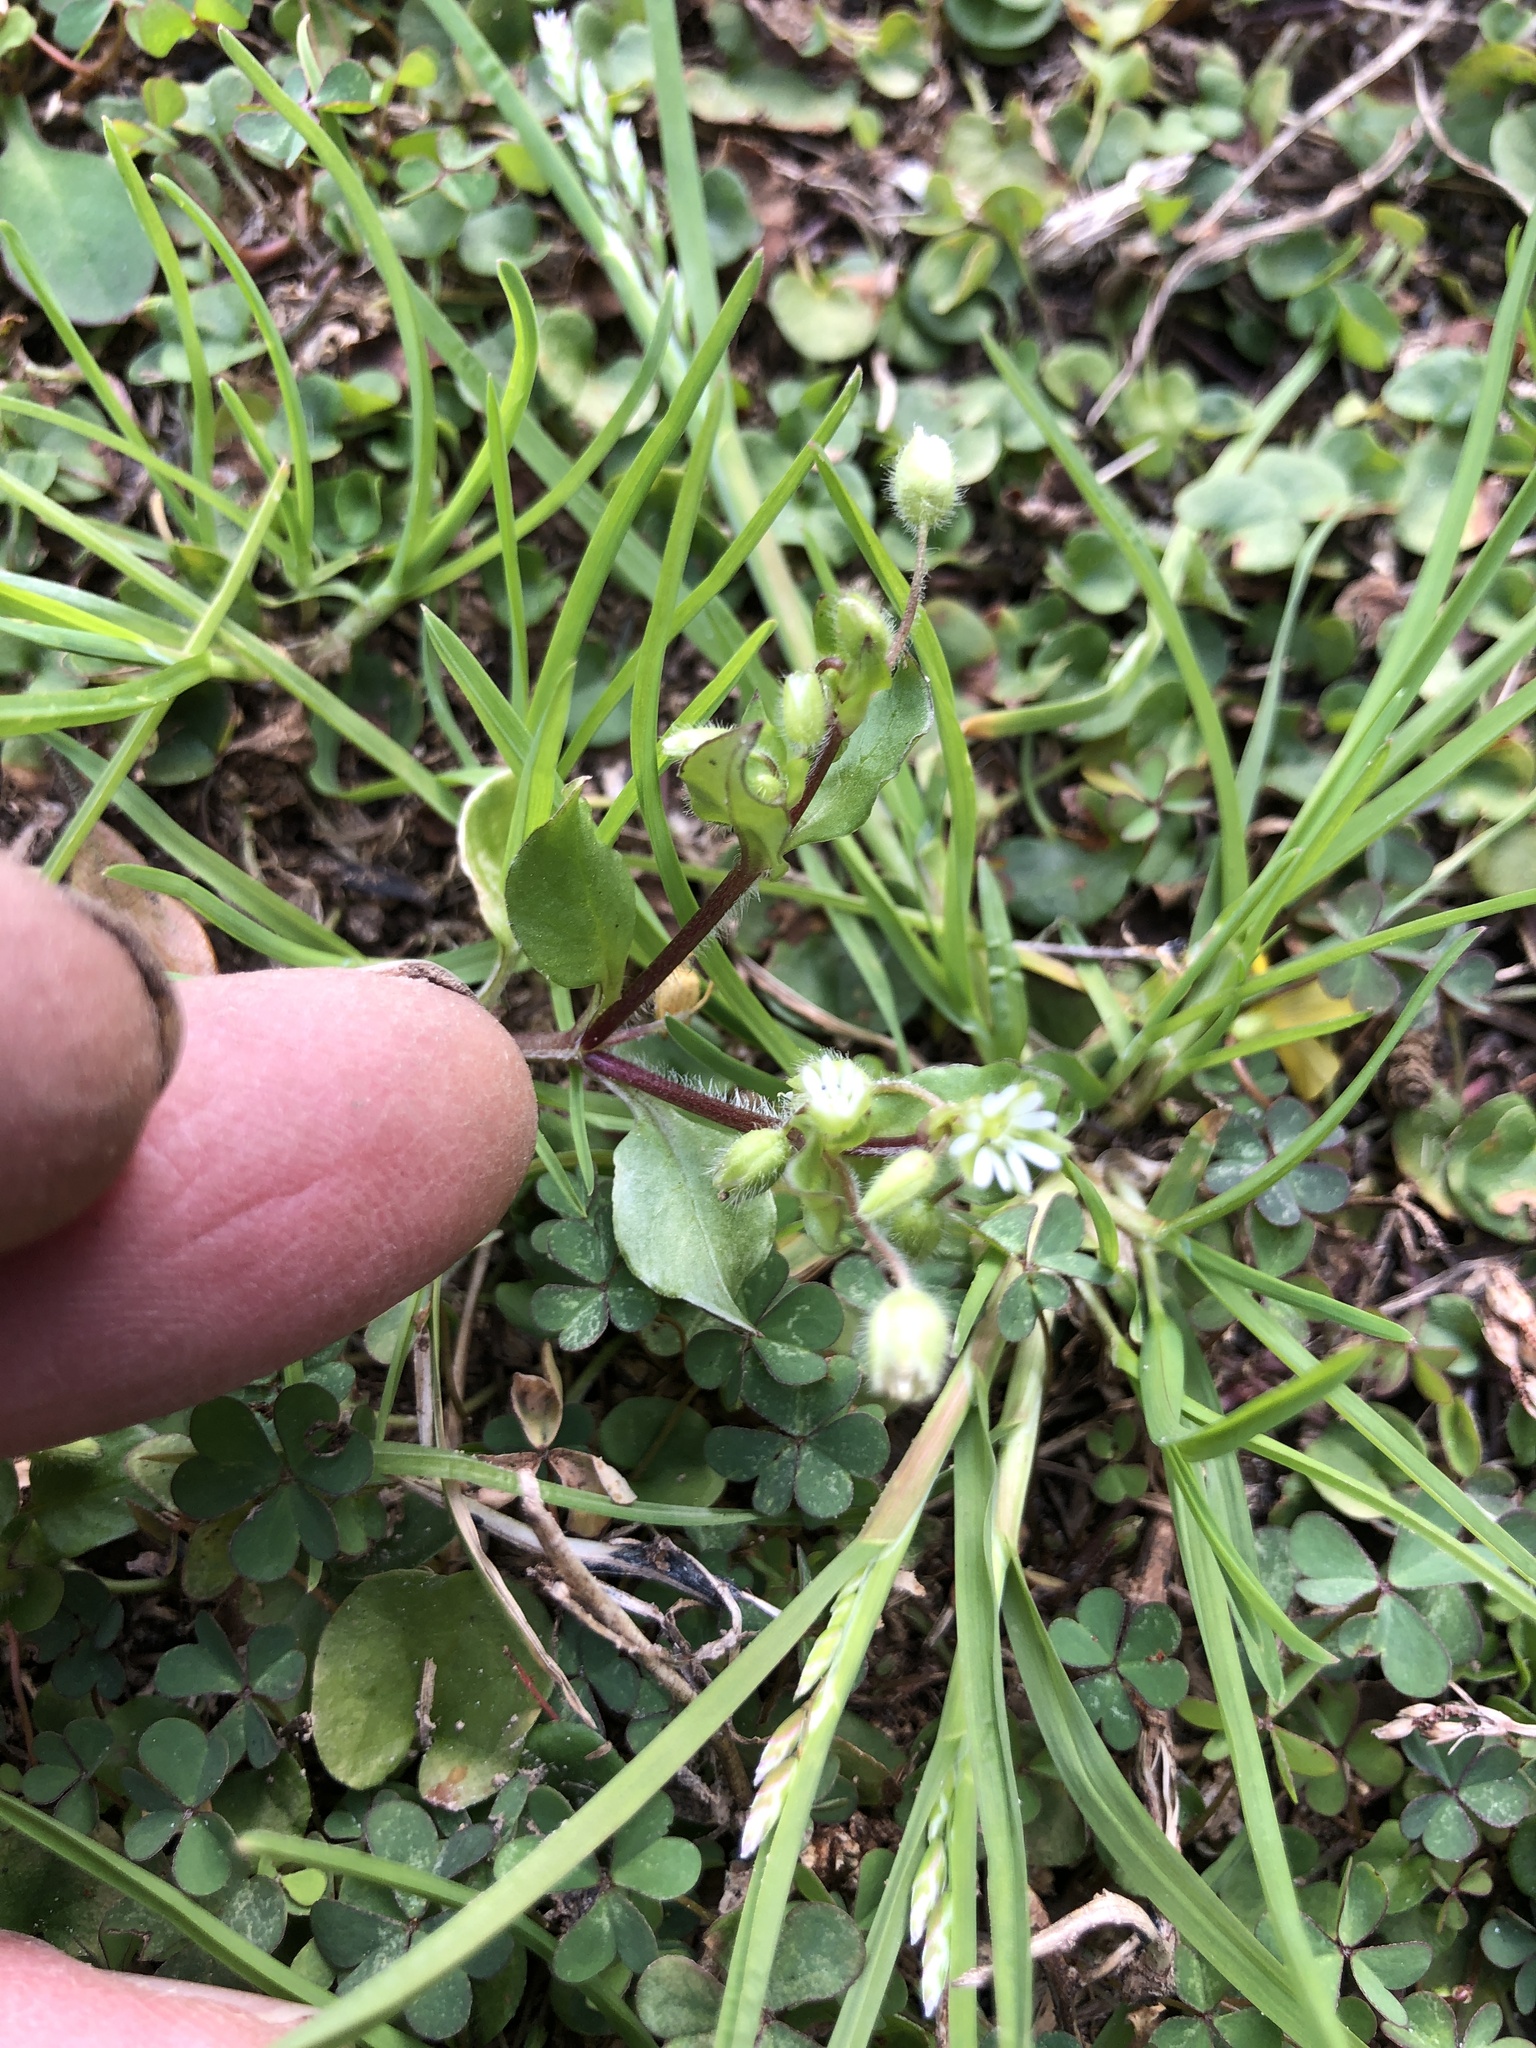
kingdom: Plantae
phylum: Tracheophyta
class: Magnoliopsida
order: Caryophyllales
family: Caryophyllaceae
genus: Stellaria
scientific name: Stellaria media
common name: Common chickweed
